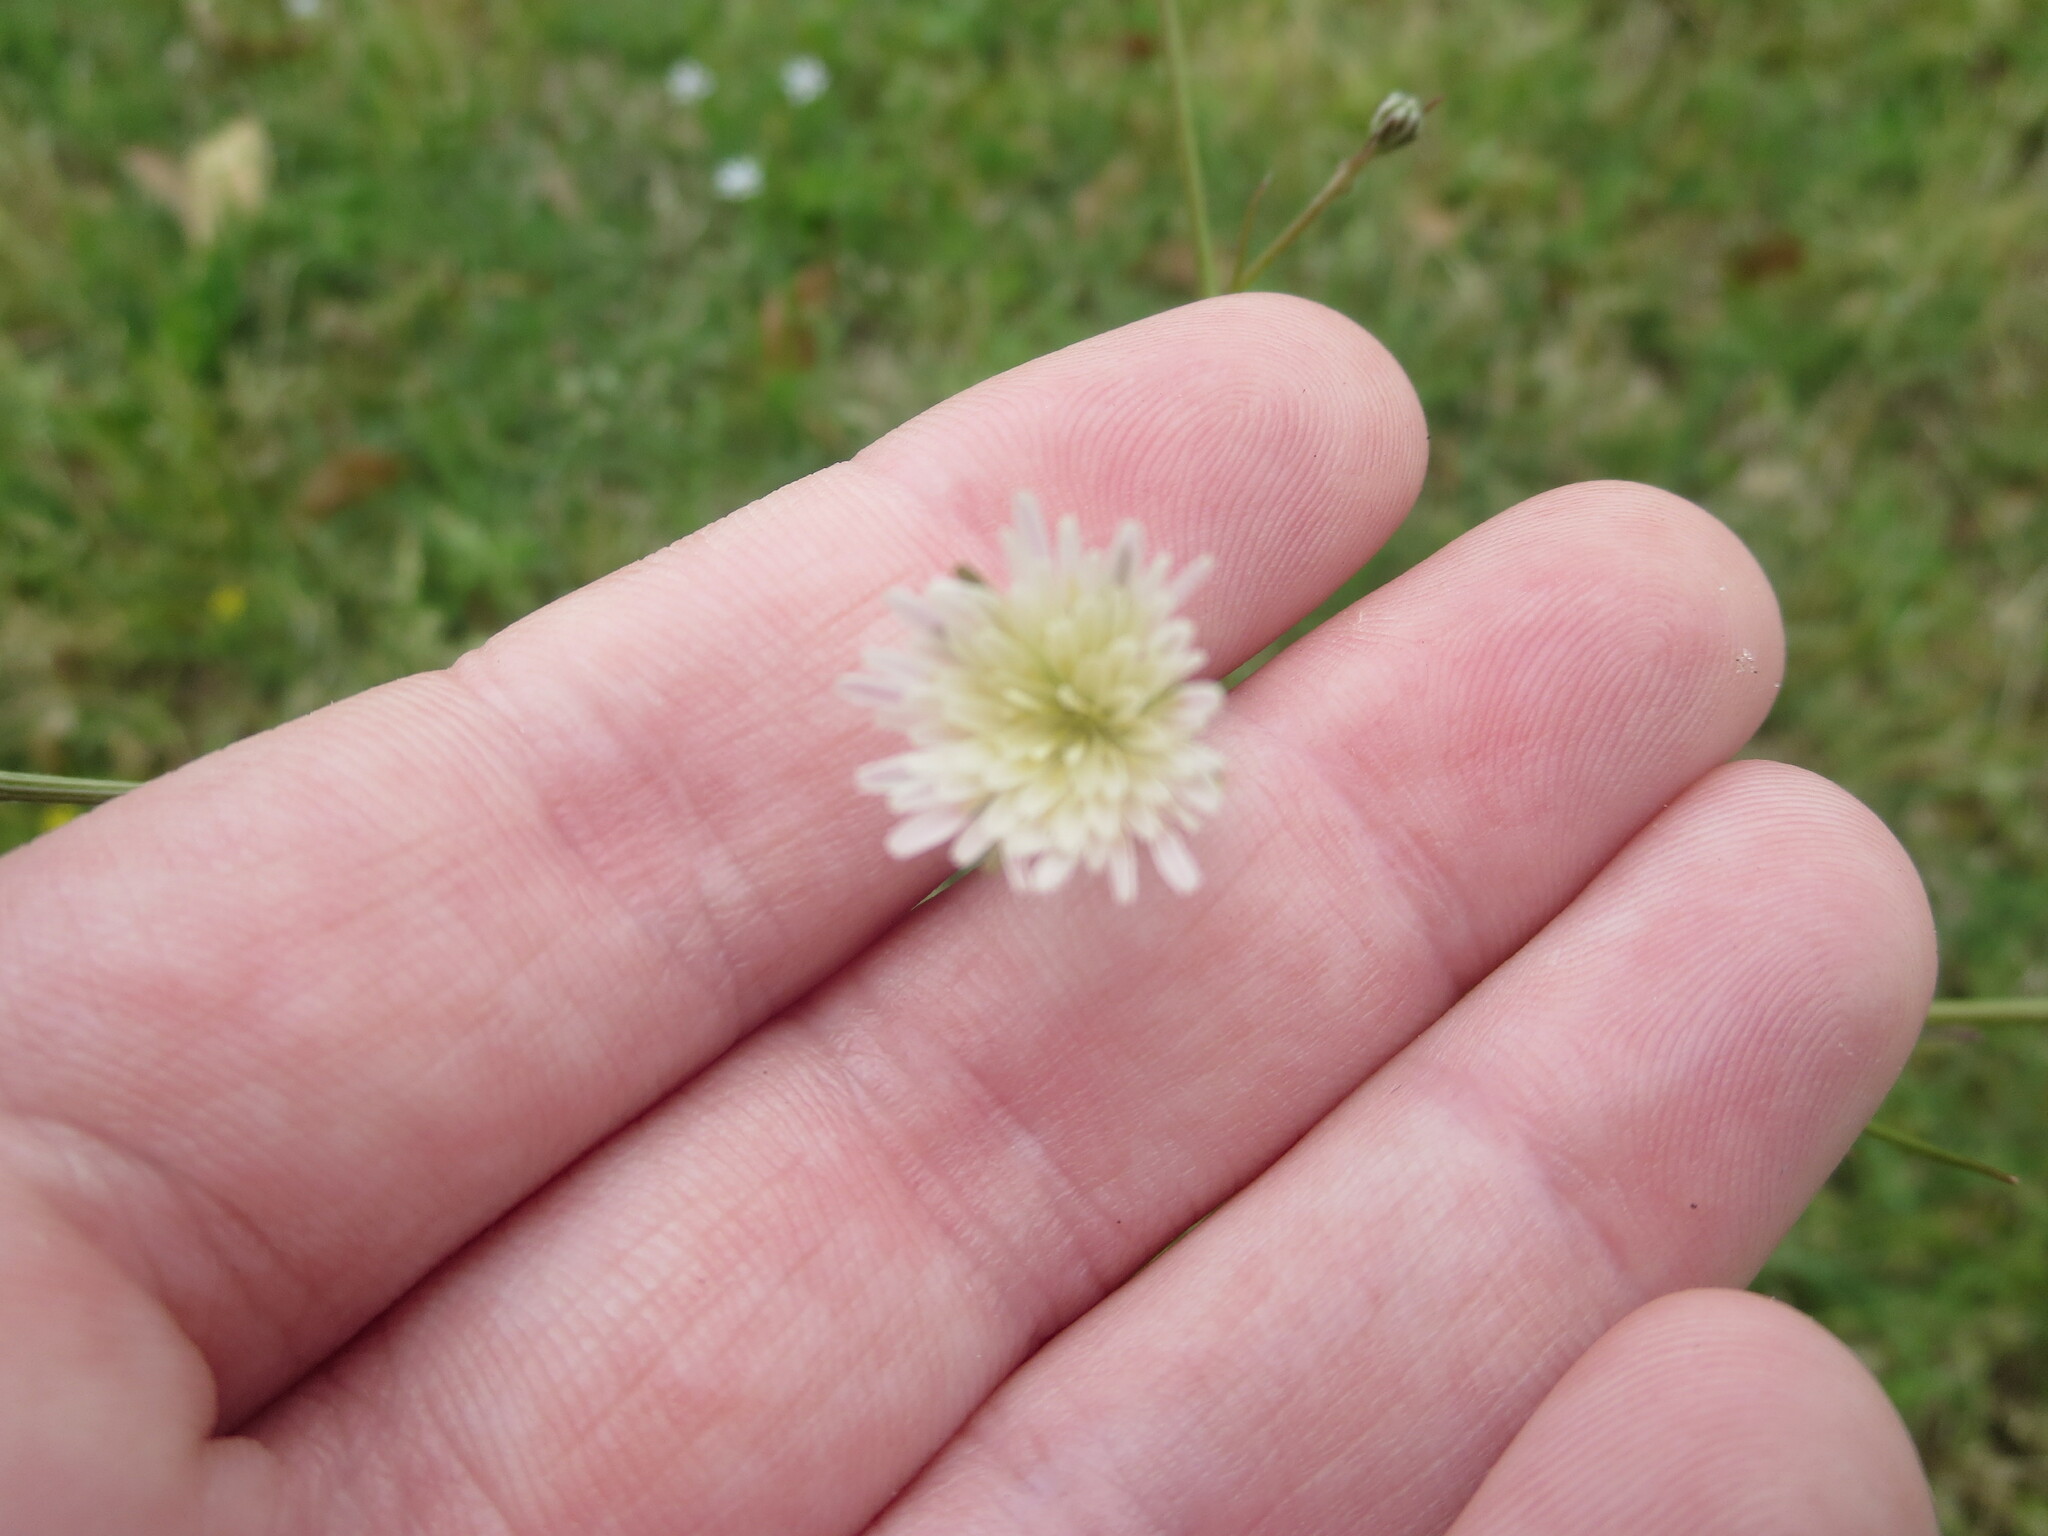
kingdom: Plantae
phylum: Tracheophyta
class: Magnoliopsida
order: Asterales
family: Asteraceae
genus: Hypochaeris
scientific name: Hypochaeris albiflora
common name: White flatweed
